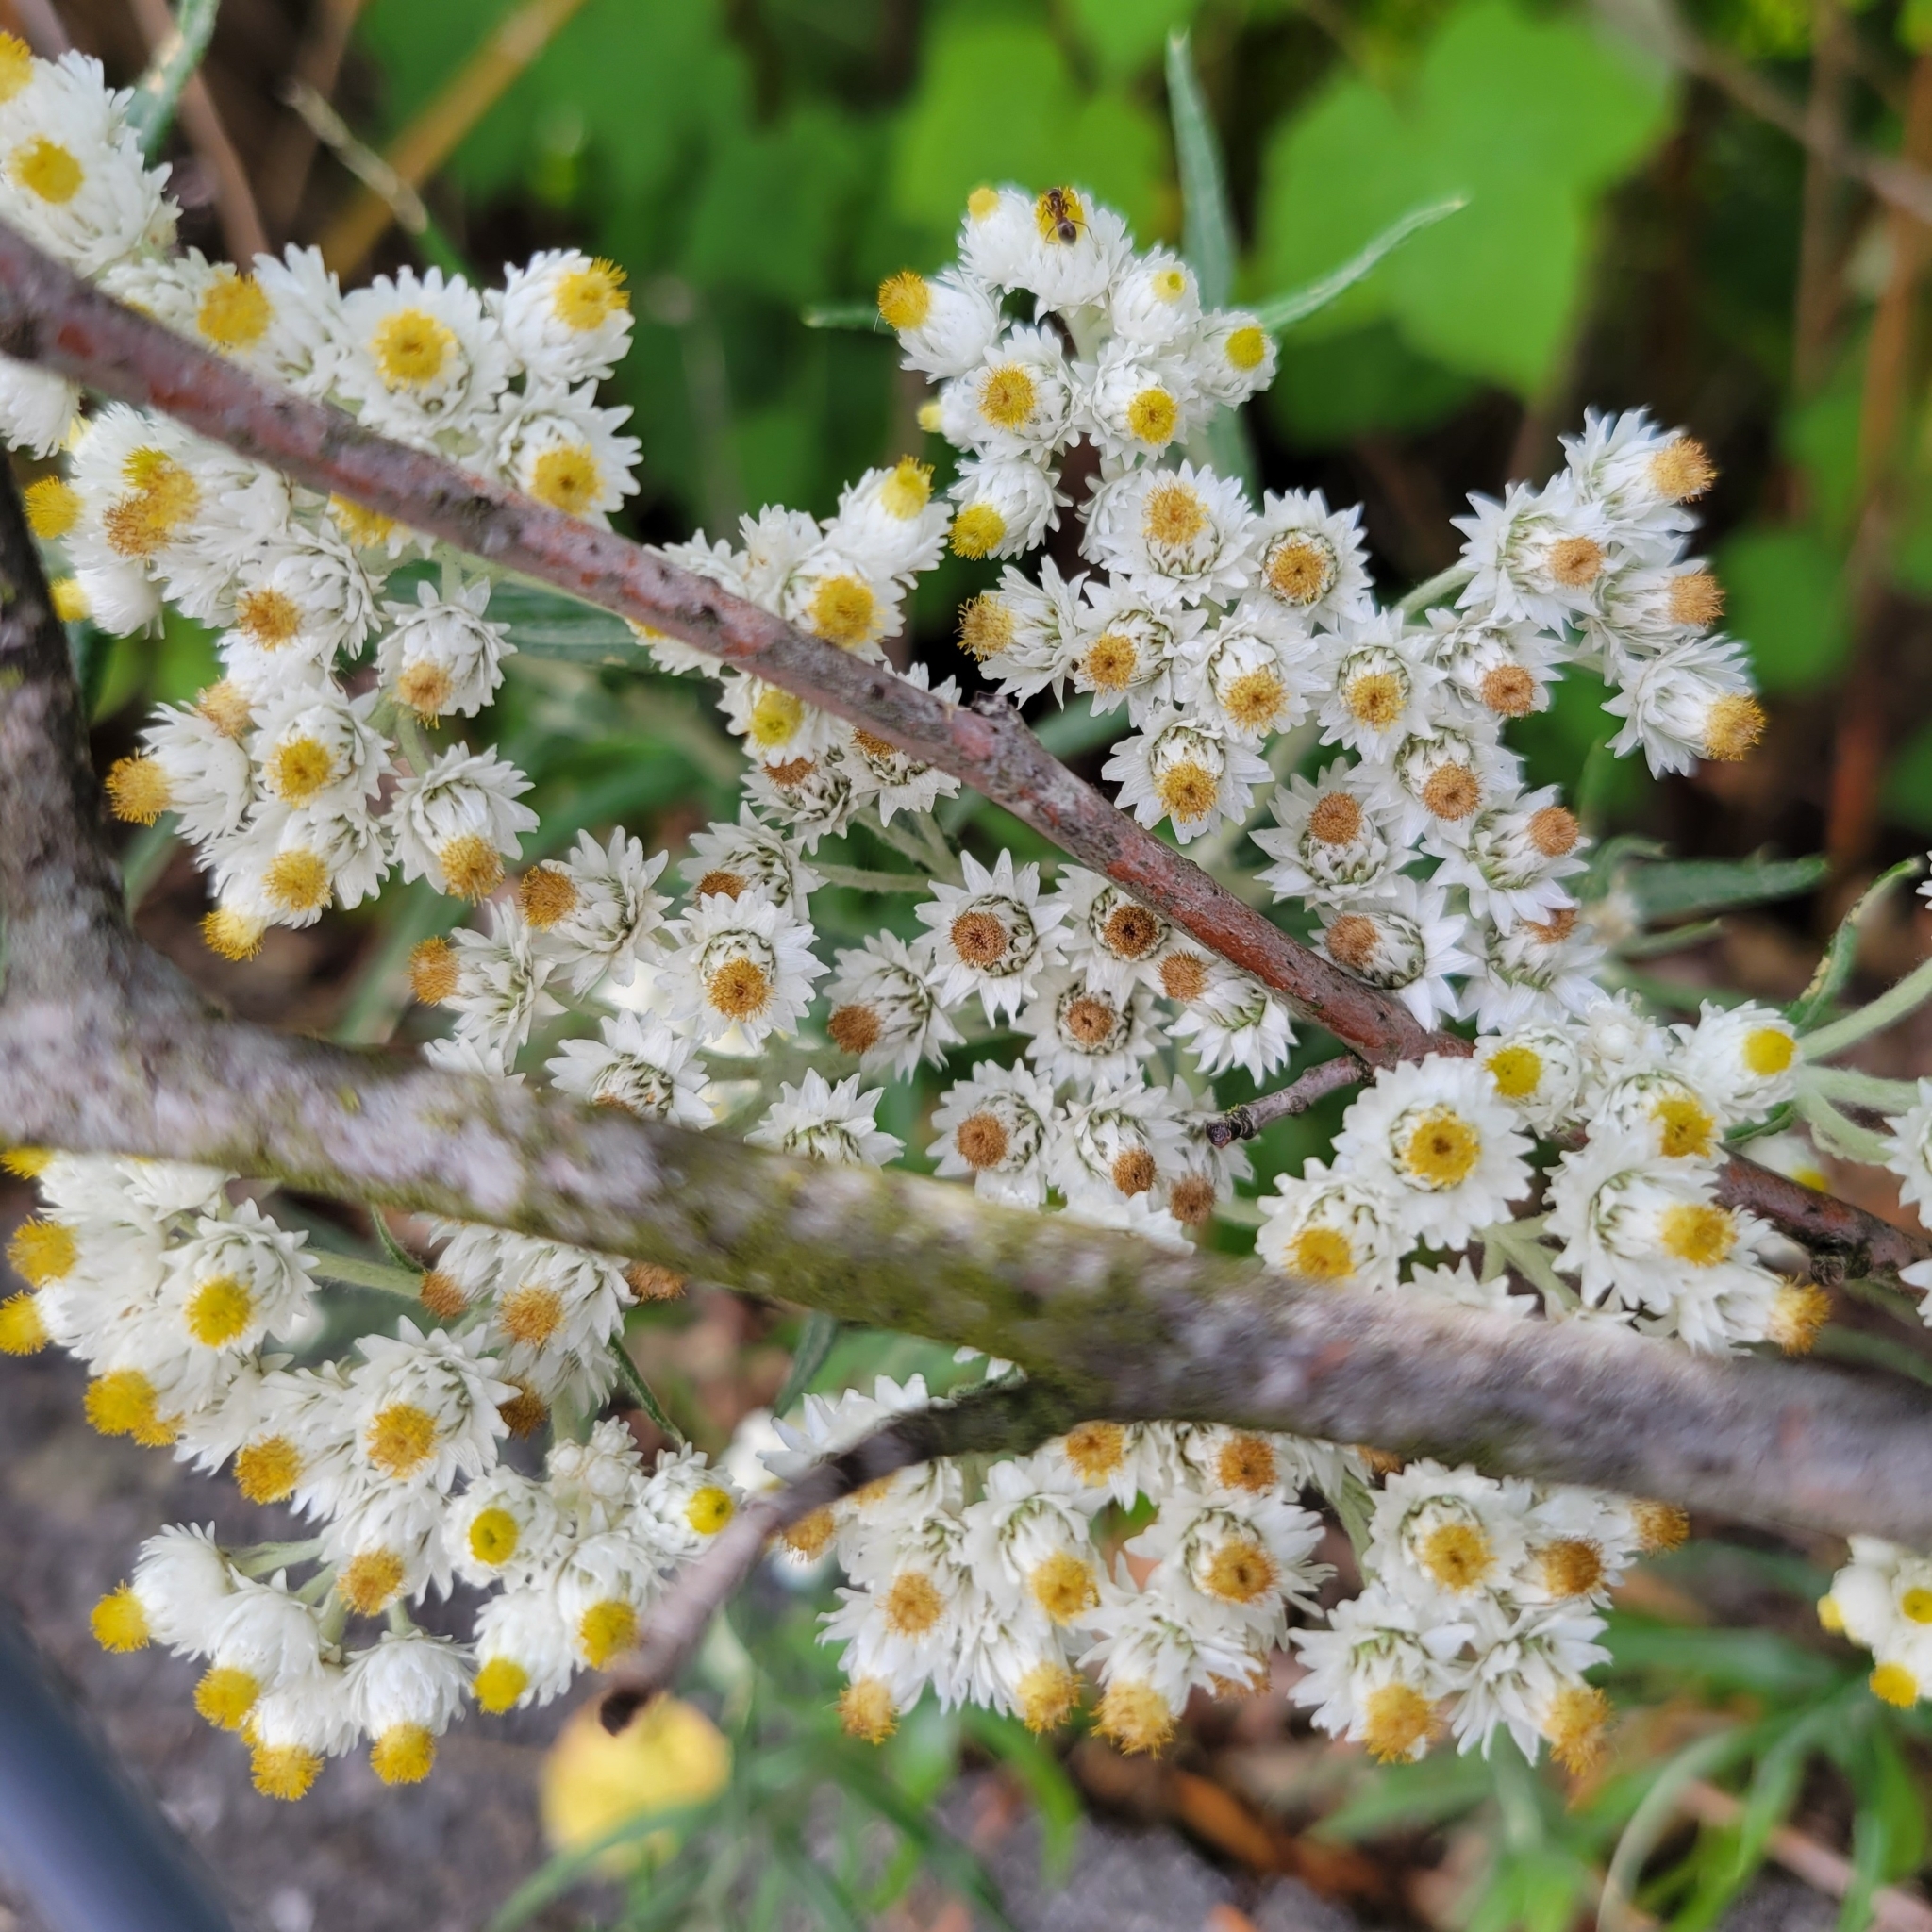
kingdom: Plantae
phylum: Tracheophyta
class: Magnoliopsida
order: Asterales
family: Asteraceae
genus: Anaphalis
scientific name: Anaphalis margaritacea
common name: Pearly everlasting
